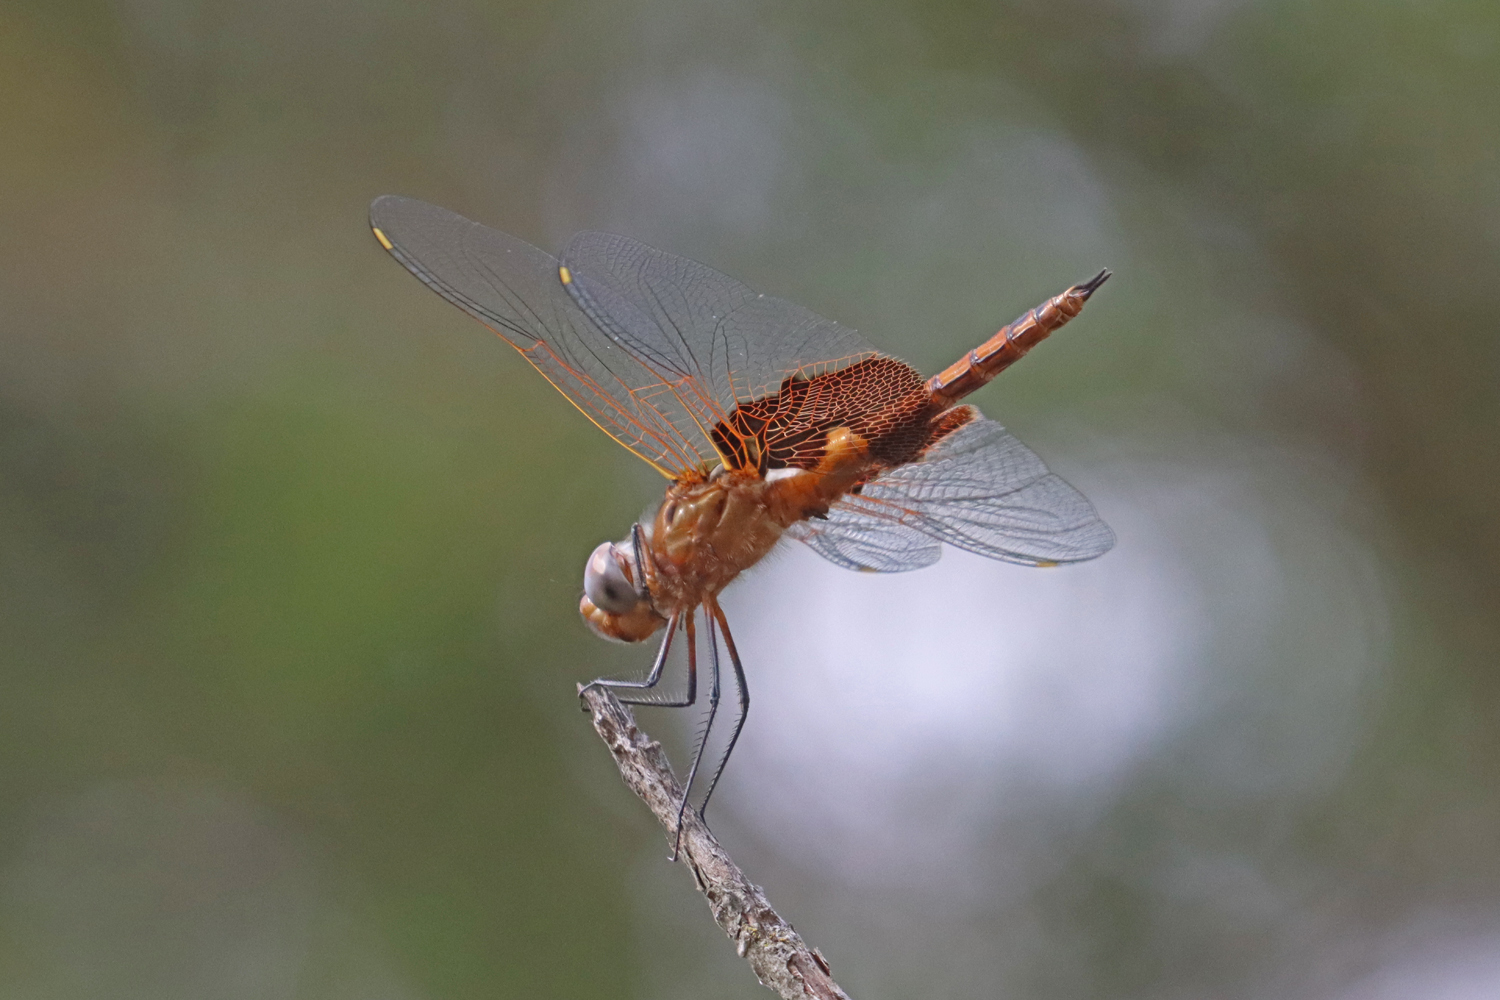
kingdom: Animalia
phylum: Arthropoda
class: Insecta
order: Odonata
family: Libellulidae
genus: Tramea
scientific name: Tramea onusta
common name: Red saddlebags
